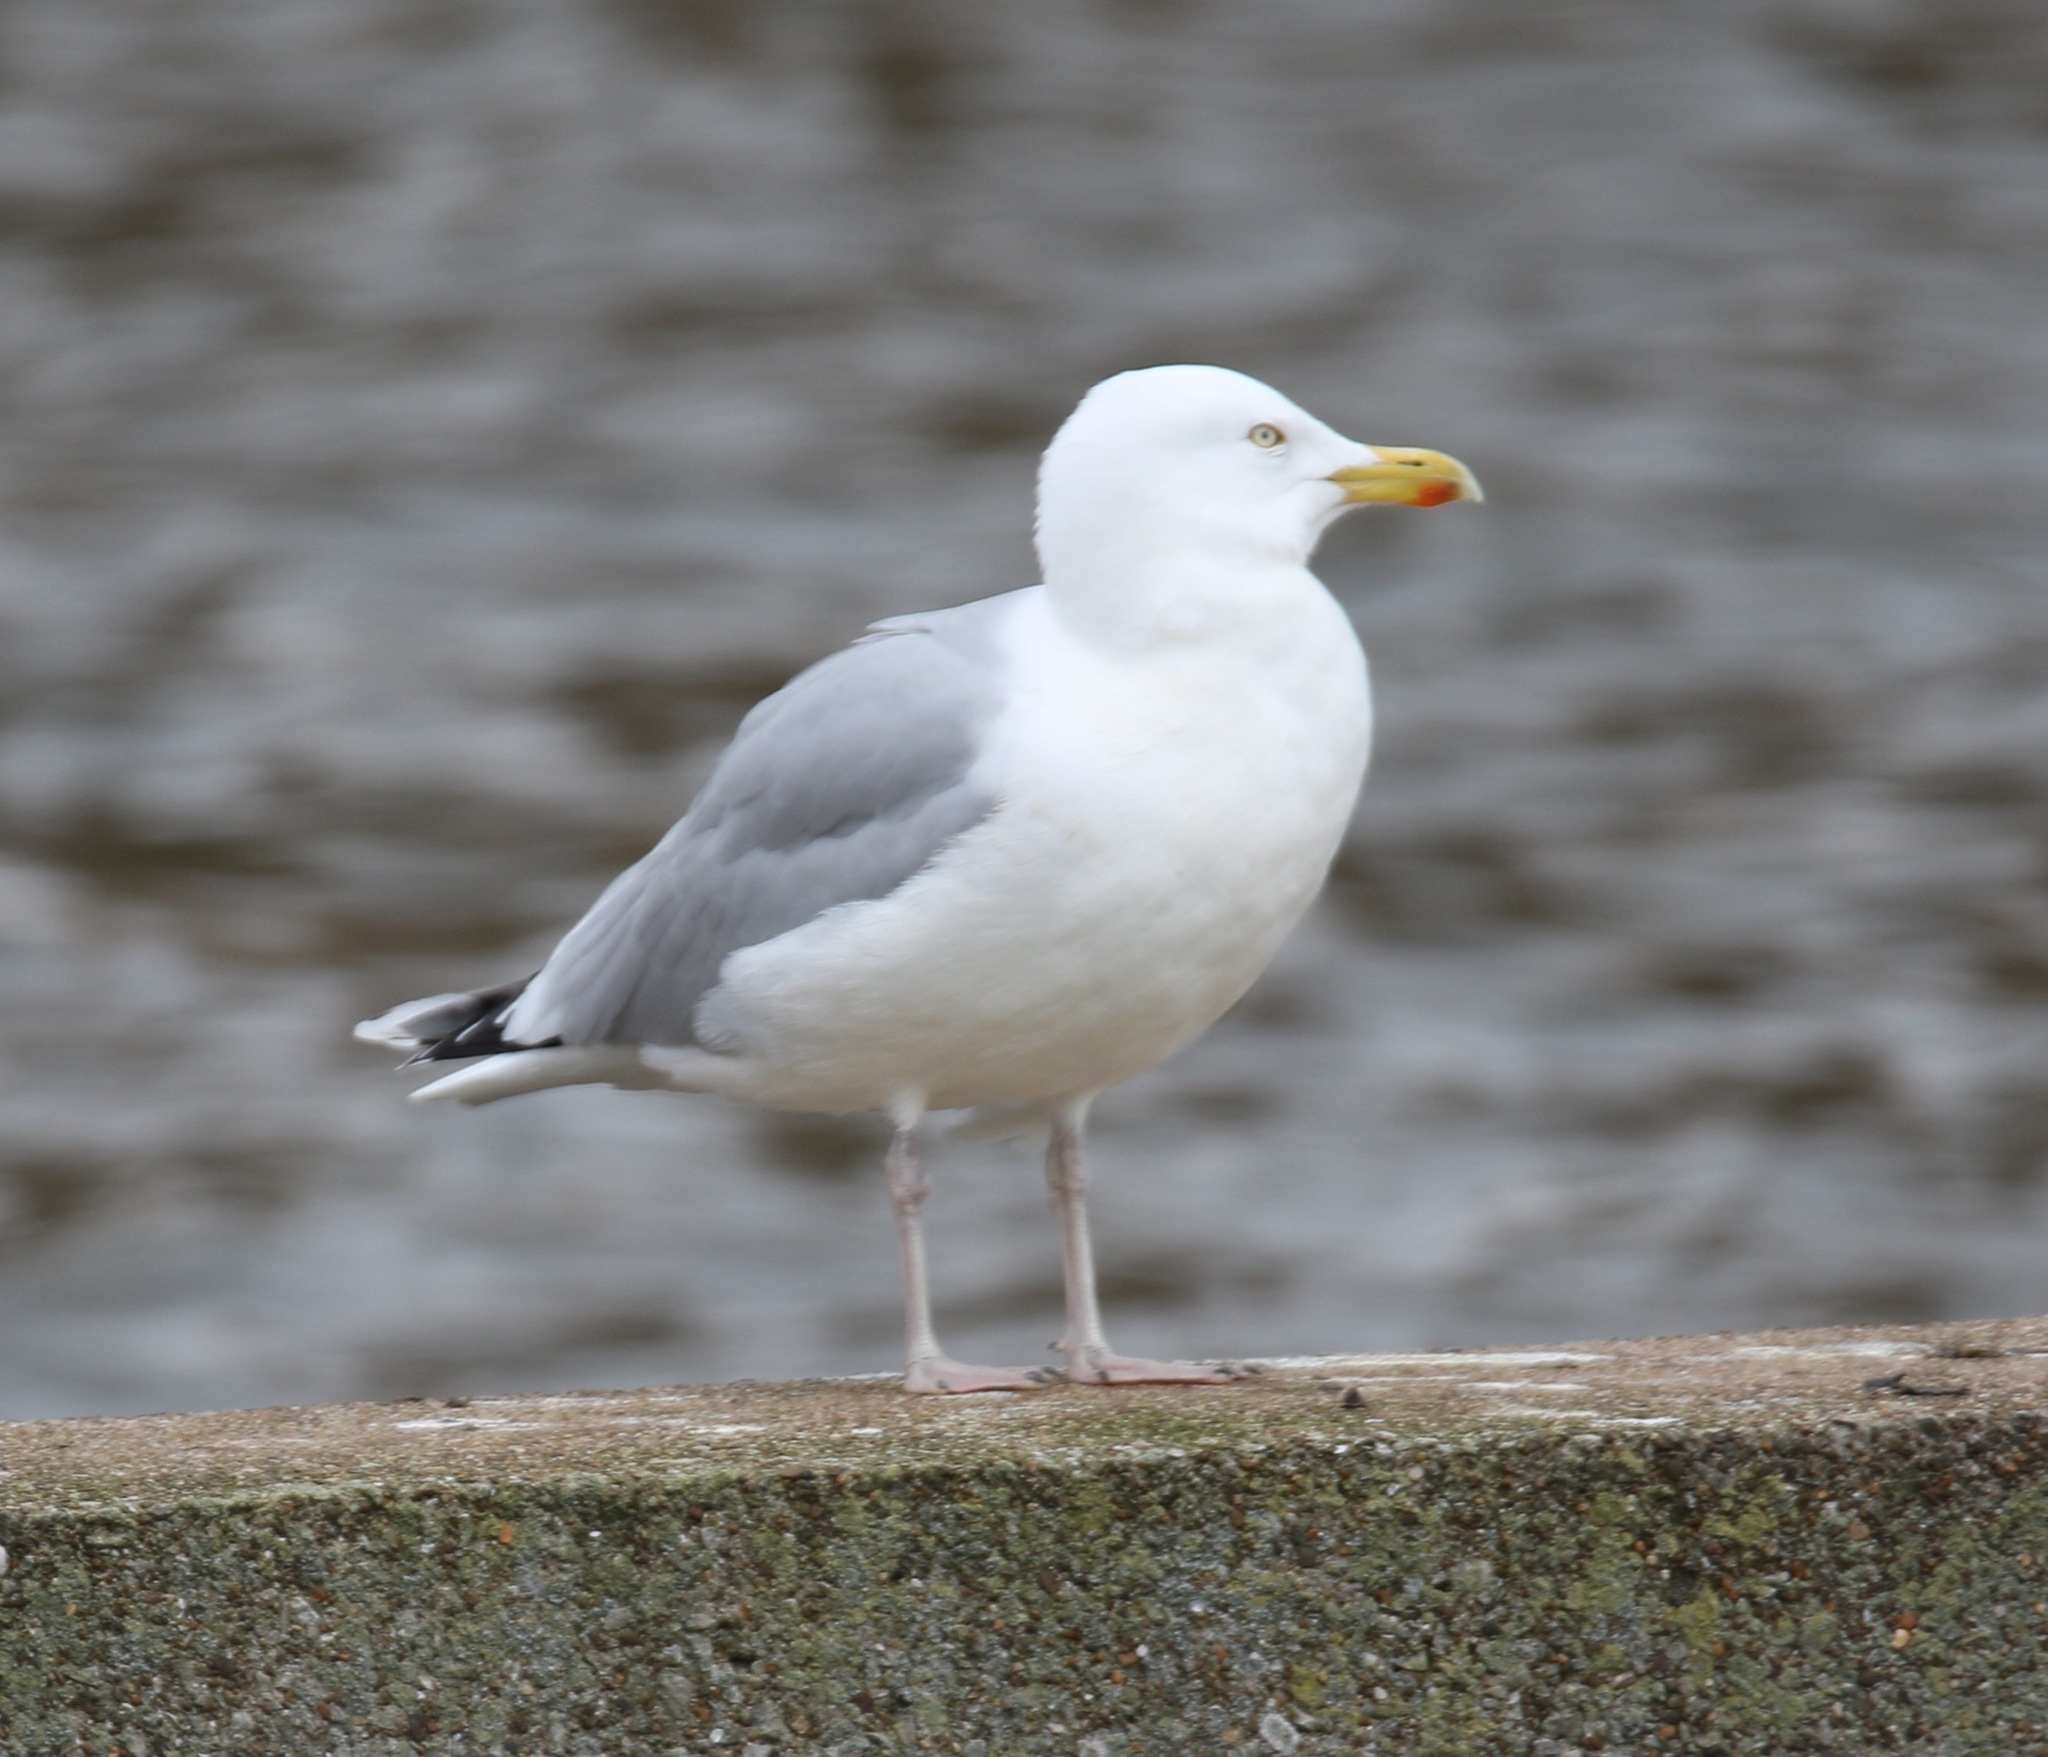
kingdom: Animalia
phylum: Chordata
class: Aves
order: Charadriiformes
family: Laridae
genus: Larus
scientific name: Larus argentatus
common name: Herring gull
